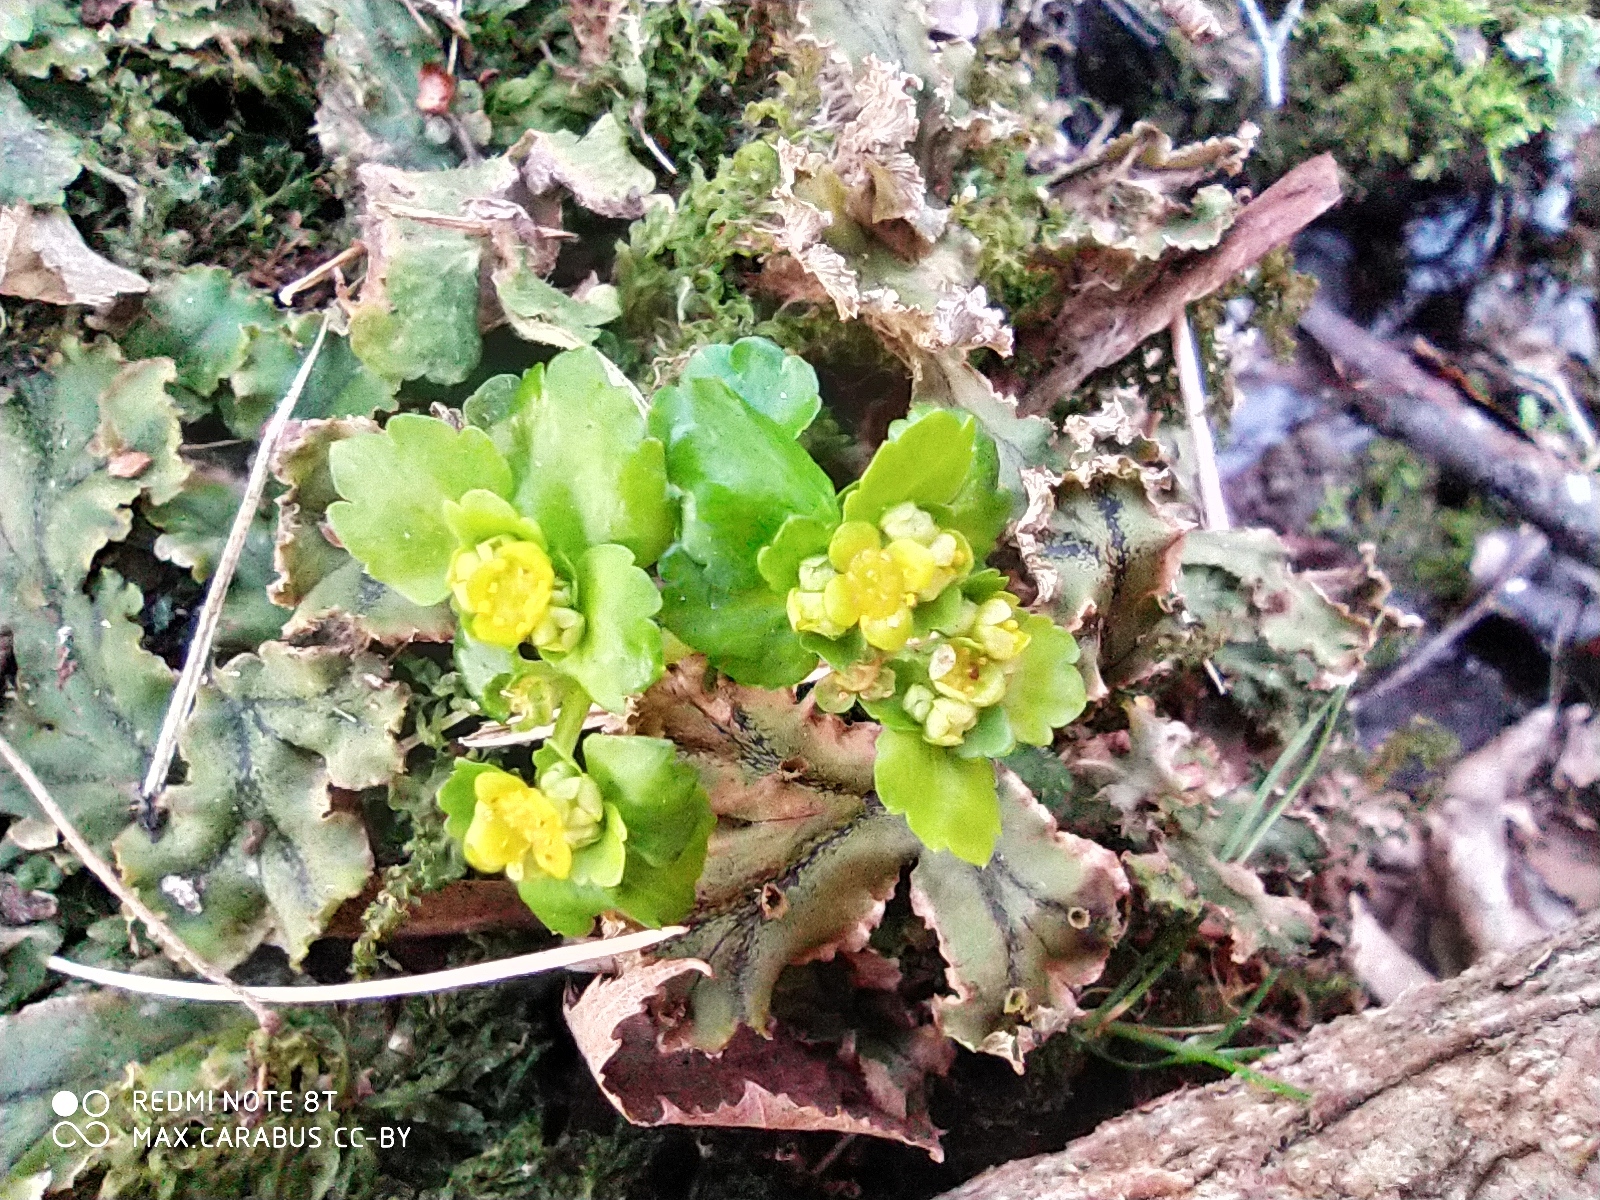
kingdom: Plantae
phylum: Tracheophyta
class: Magnoliopsida
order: Saxifragales
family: Saxifragaceae
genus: Chrysosplenium
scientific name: Chrysosplenium alternifolium
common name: Alternate-leaved golden-saxifrage
